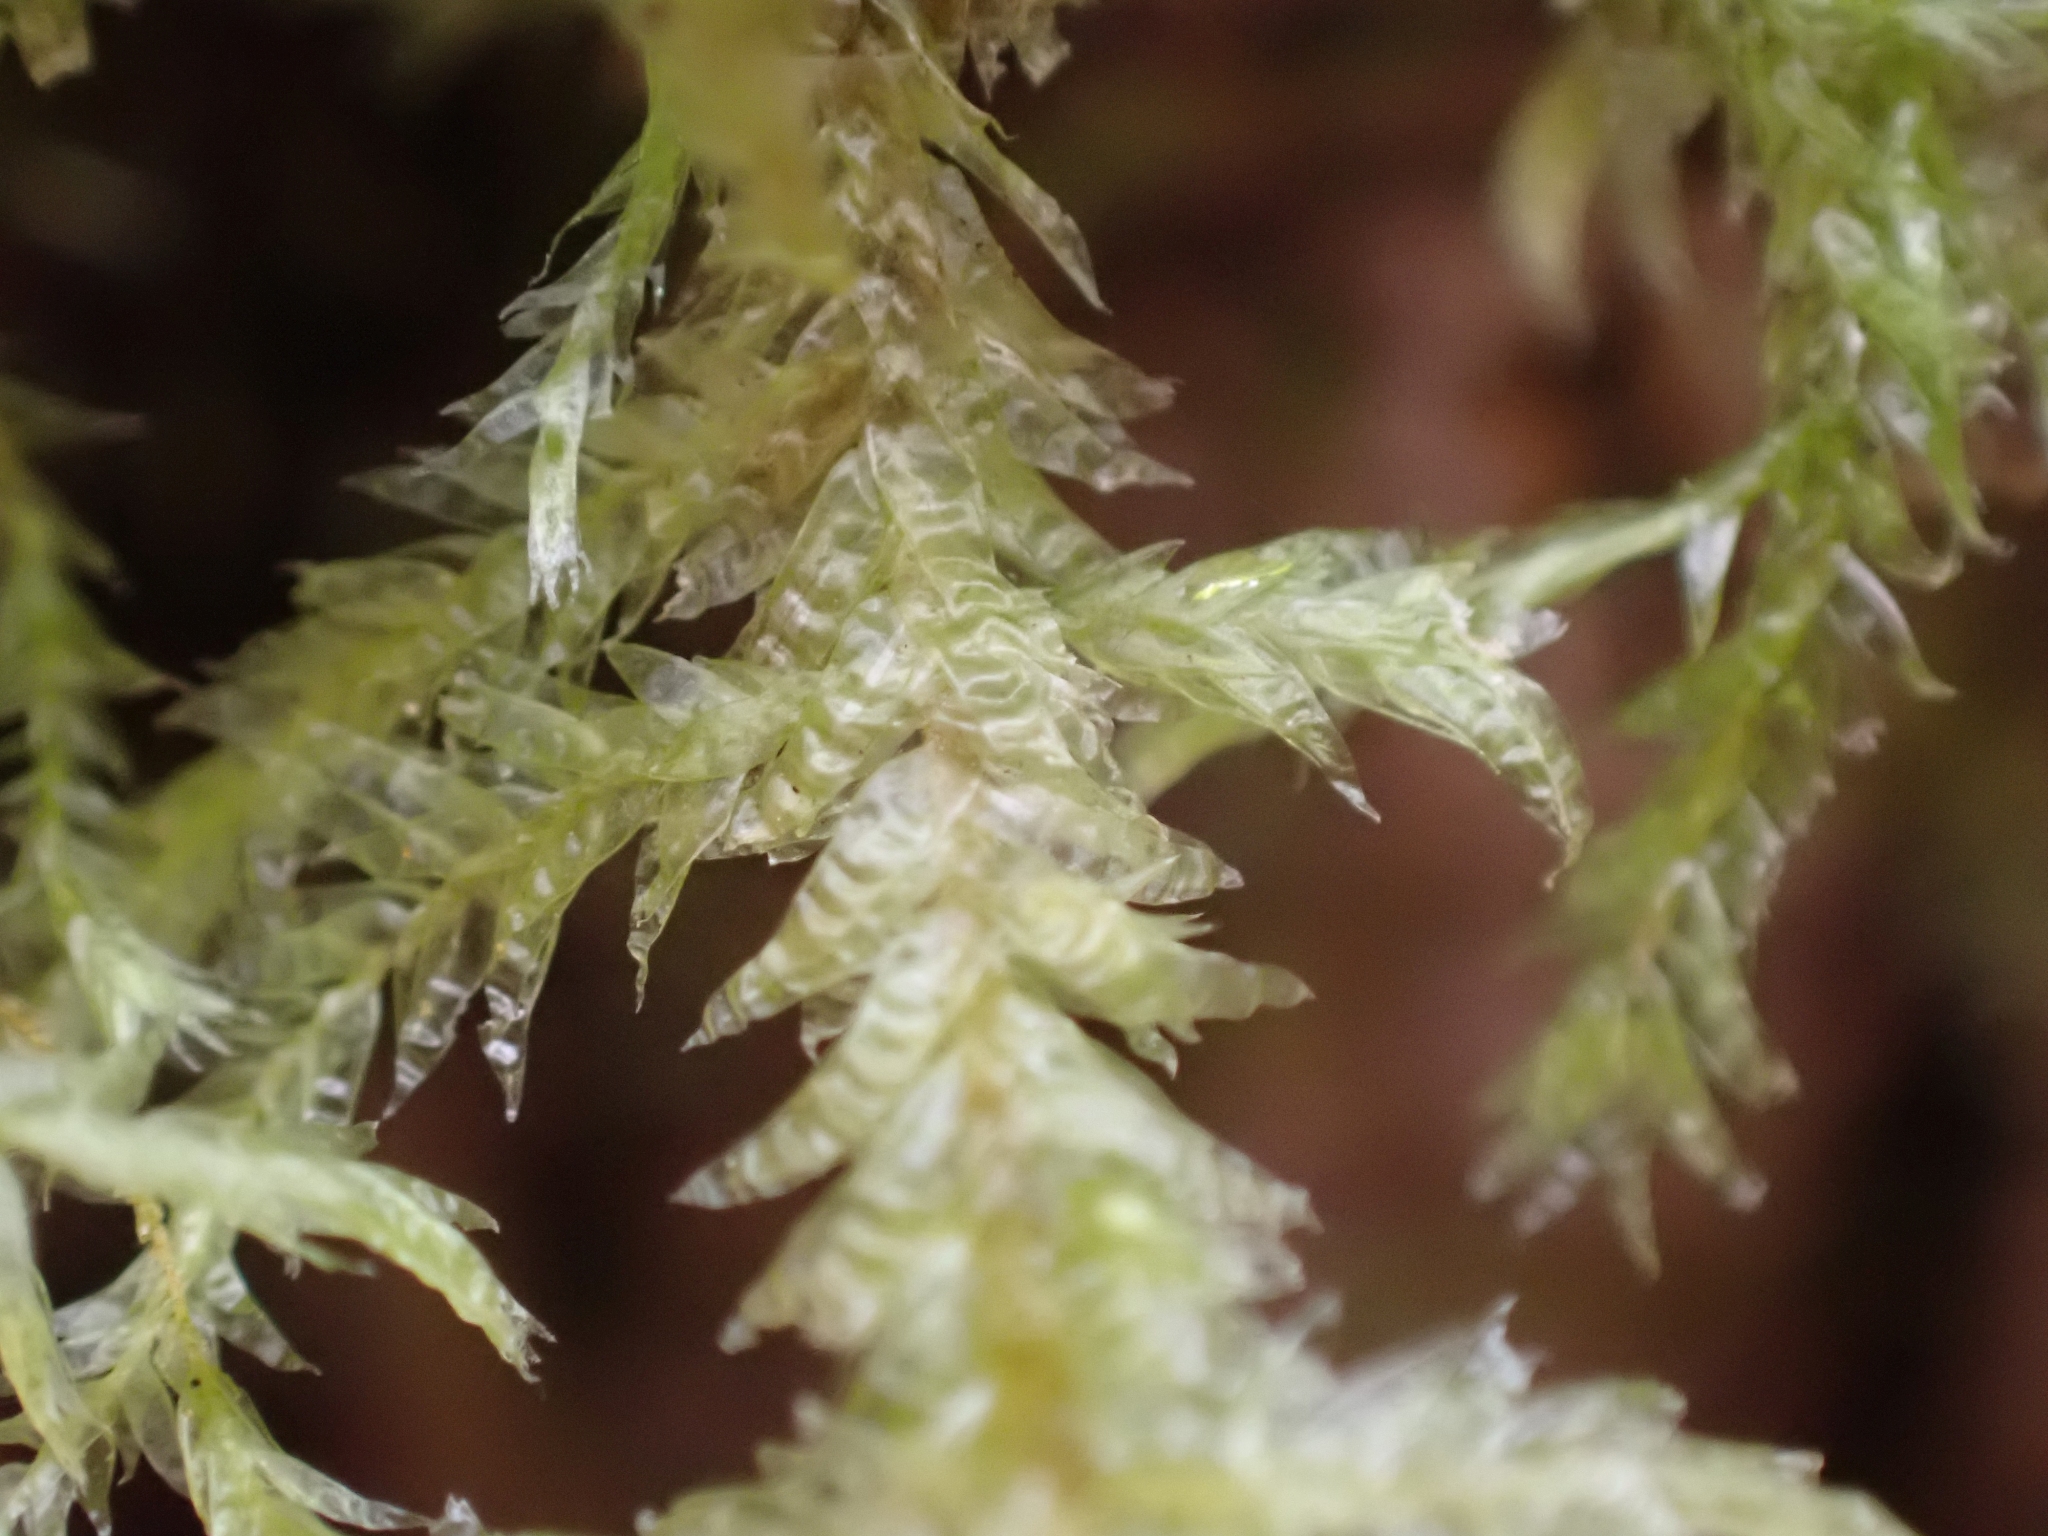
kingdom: Plantae
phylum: Bryophyta
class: Bryopsida
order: Hypnales
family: Neckeraceae
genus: Neckera
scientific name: Neckera douglasii
